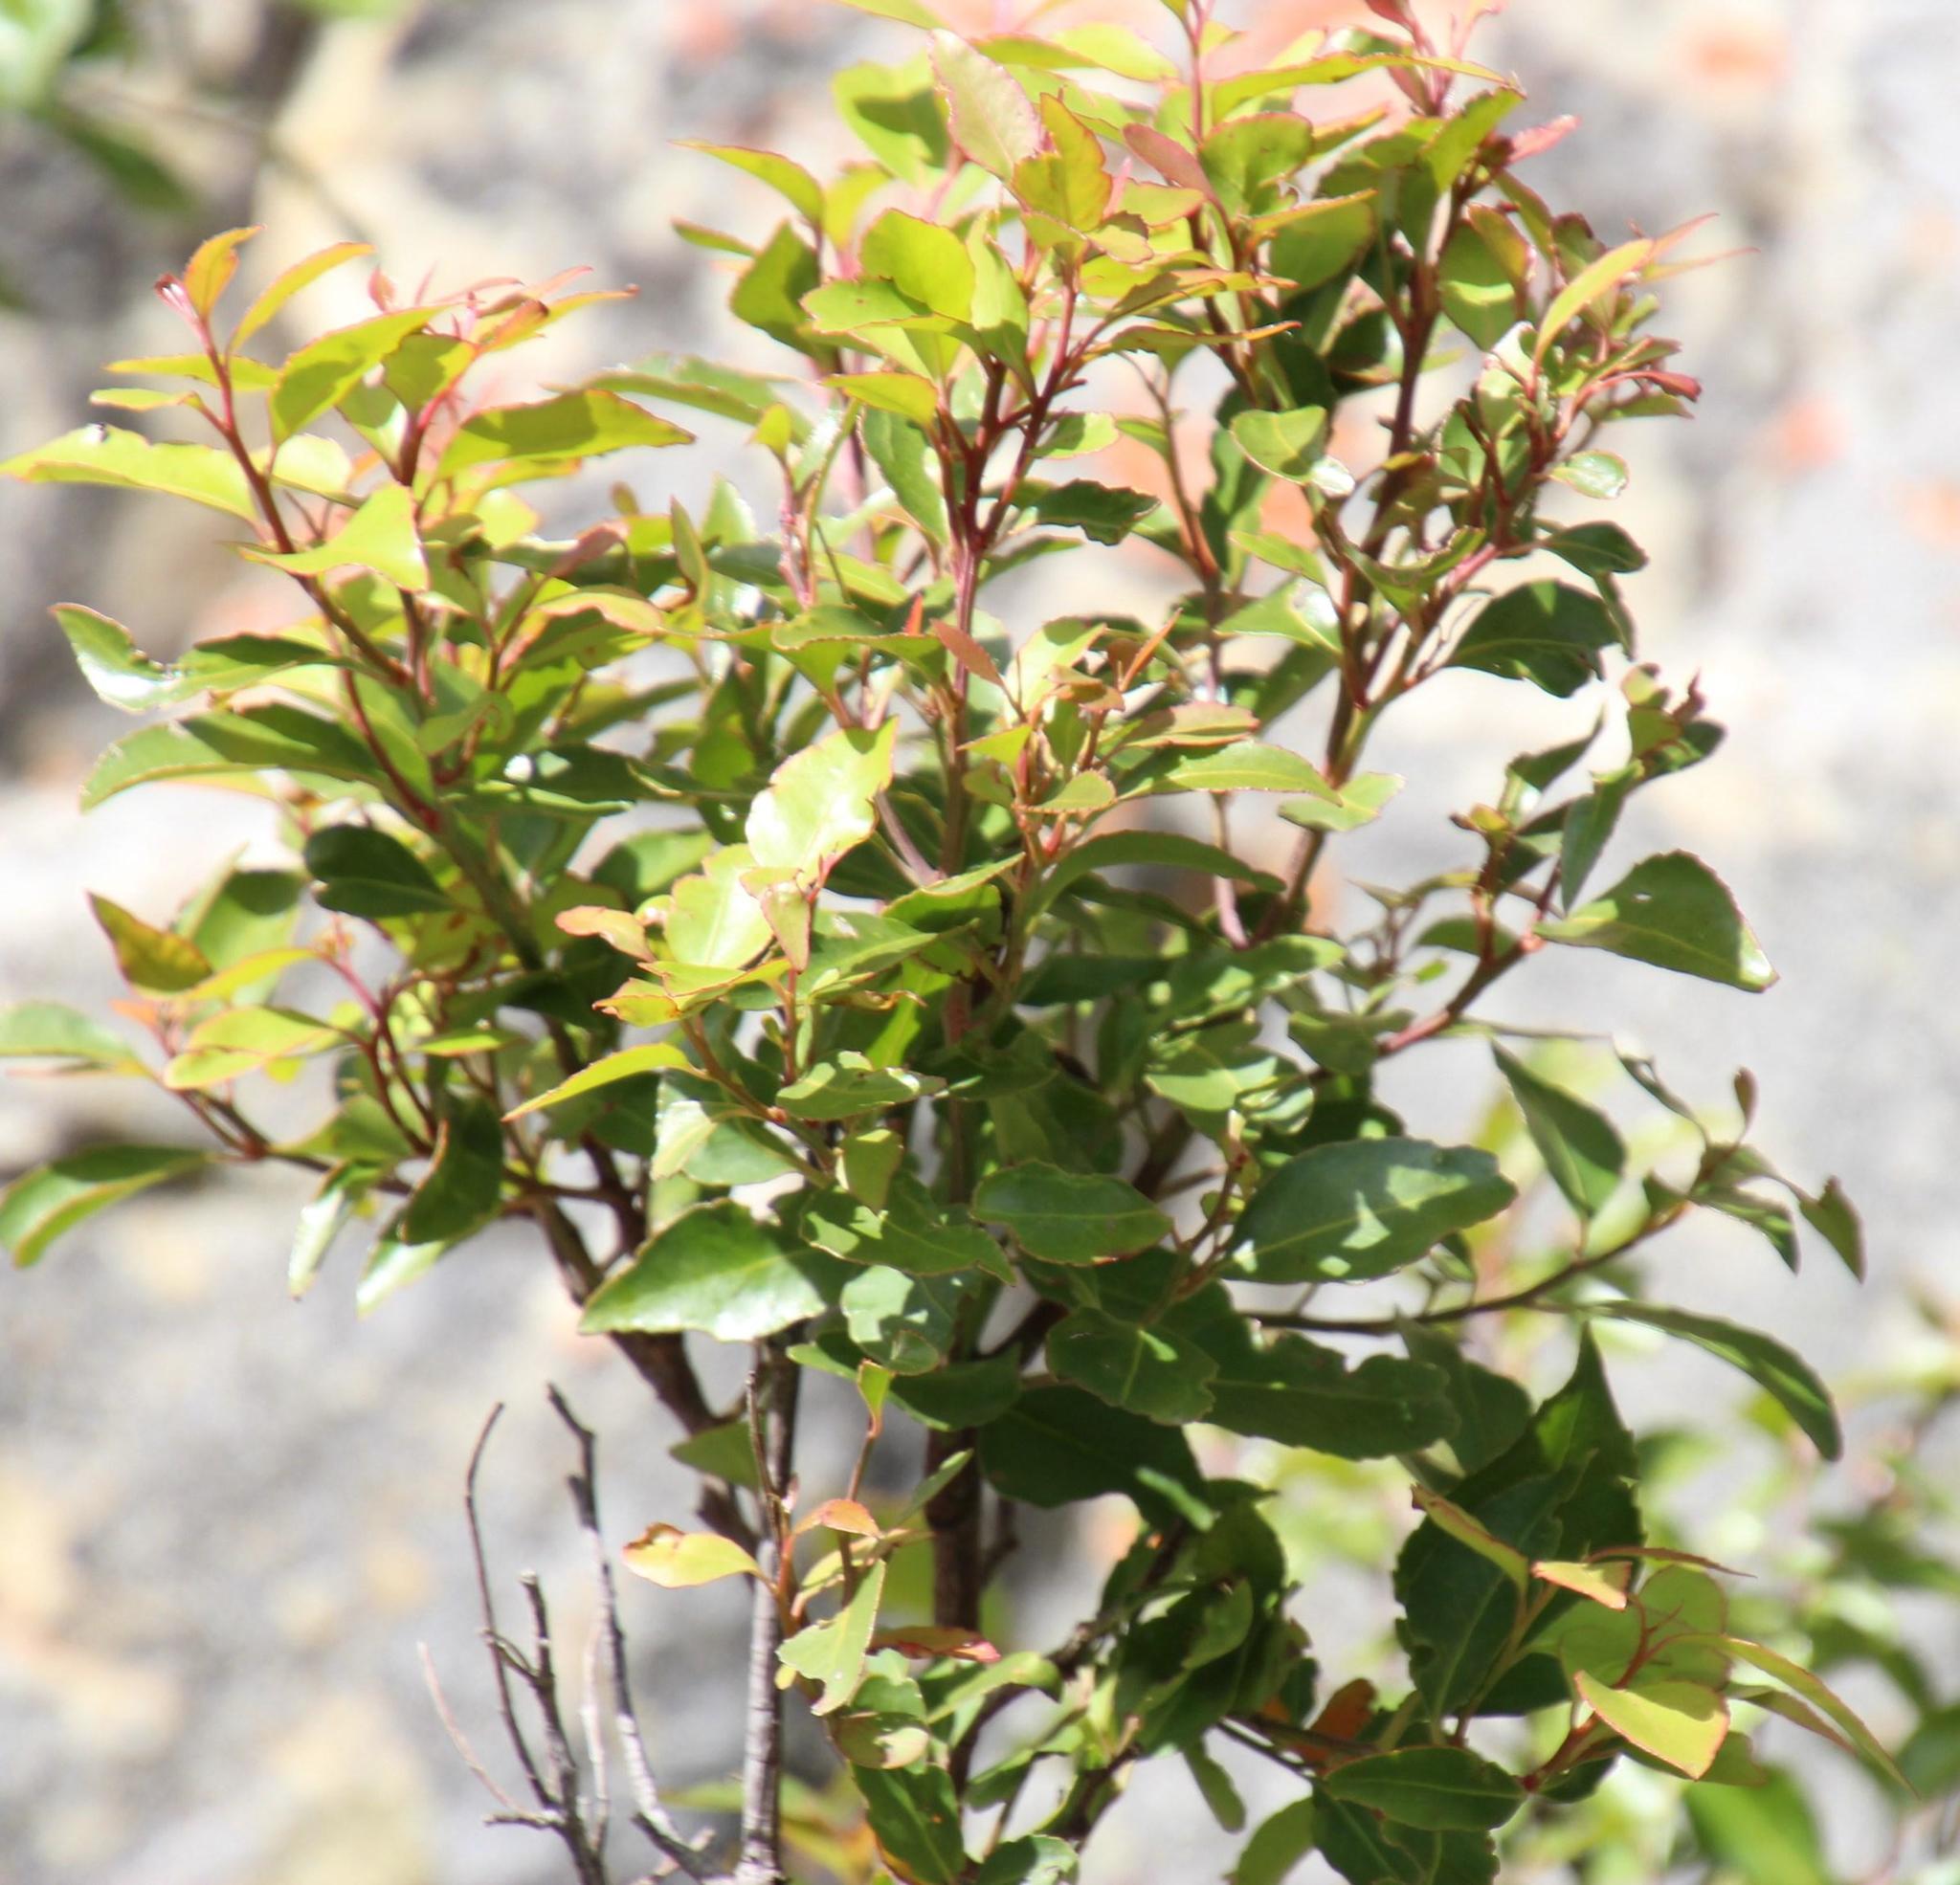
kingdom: Plantae
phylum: Tracheophyta
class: Magnoliopsida
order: Celastrales
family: Celastraceae
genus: Gymnosporia
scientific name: Gymnosporia acuminata
